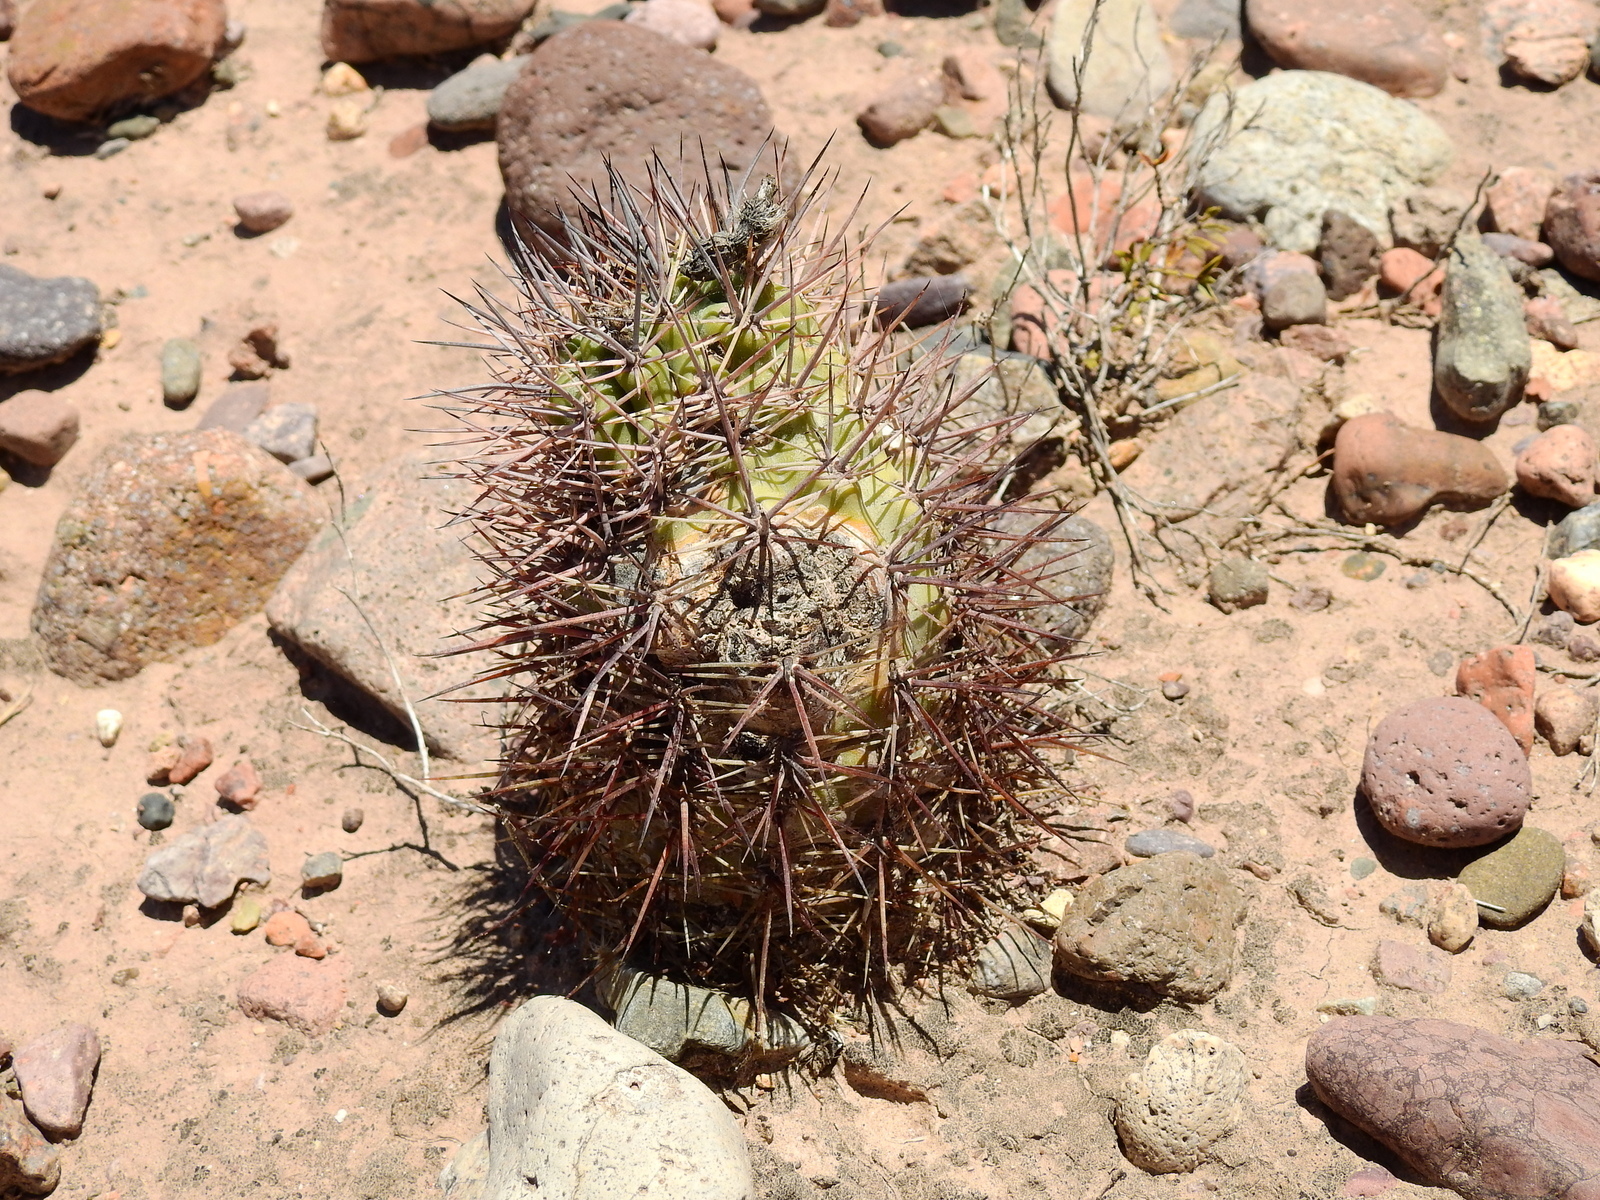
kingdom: Plantae
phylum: Tracheophyta
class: Magnoliopsida
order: Caryophyllales
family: Cactaceae
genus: Eriosyce
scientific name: Eriosyce strausiana
